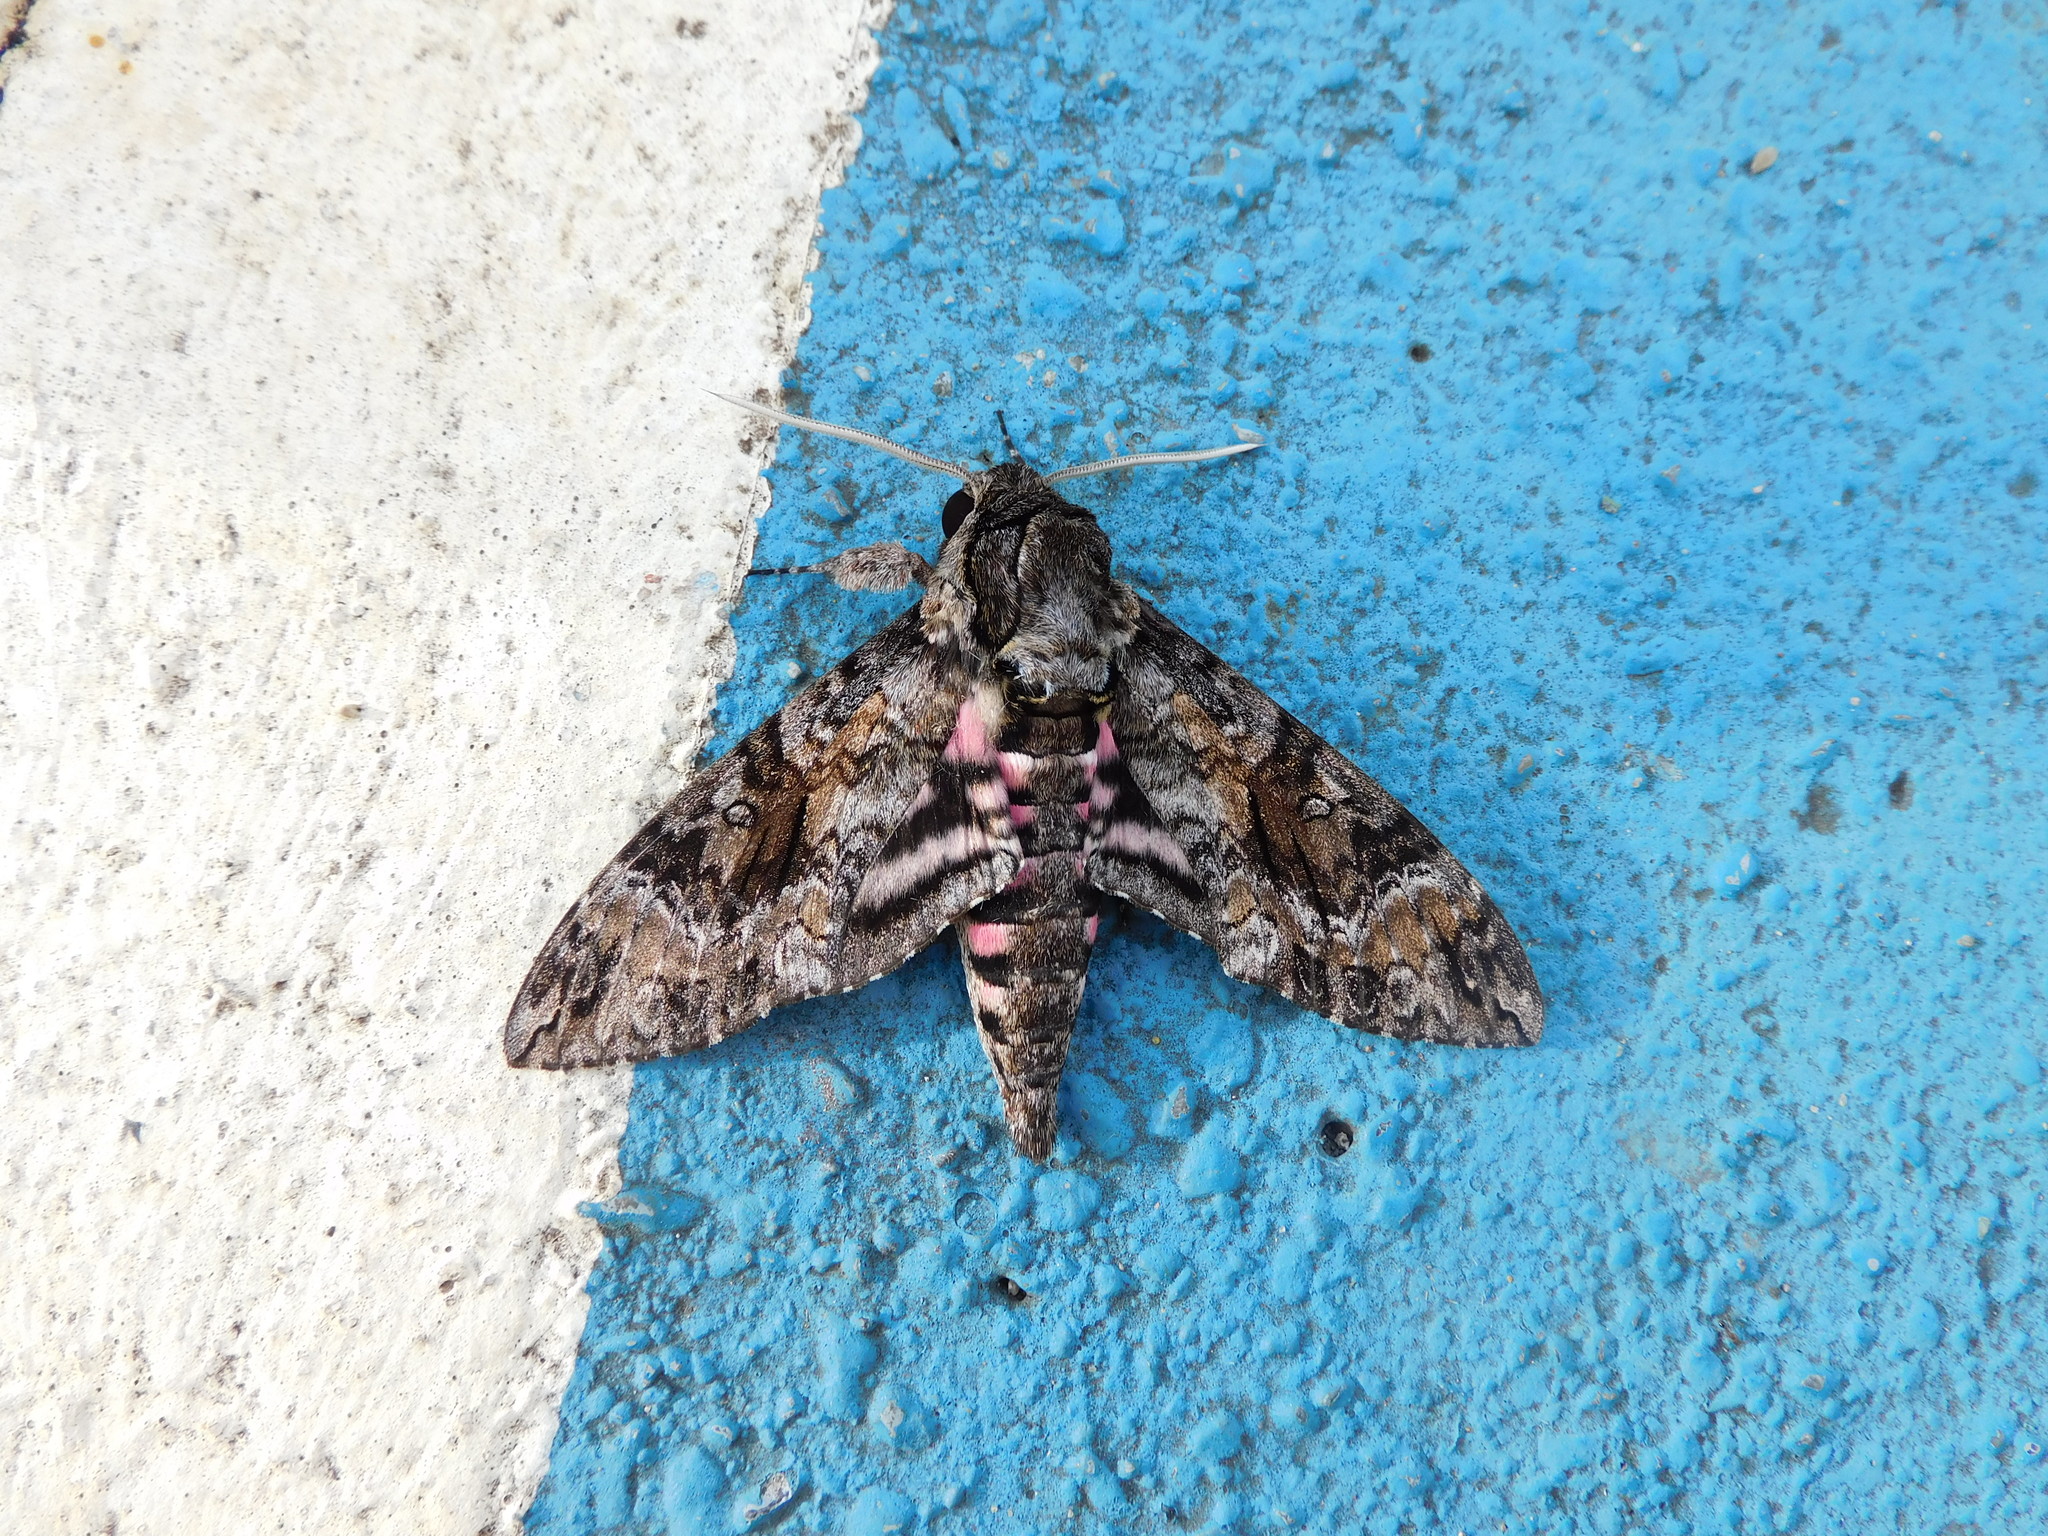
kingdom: Animalia
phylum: Arthropoda
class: Insecta
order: Lepidoptera
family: Sphingidae
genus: Agrius
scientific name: Agrius cingulata
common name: Pink-spotted hawkmoth
